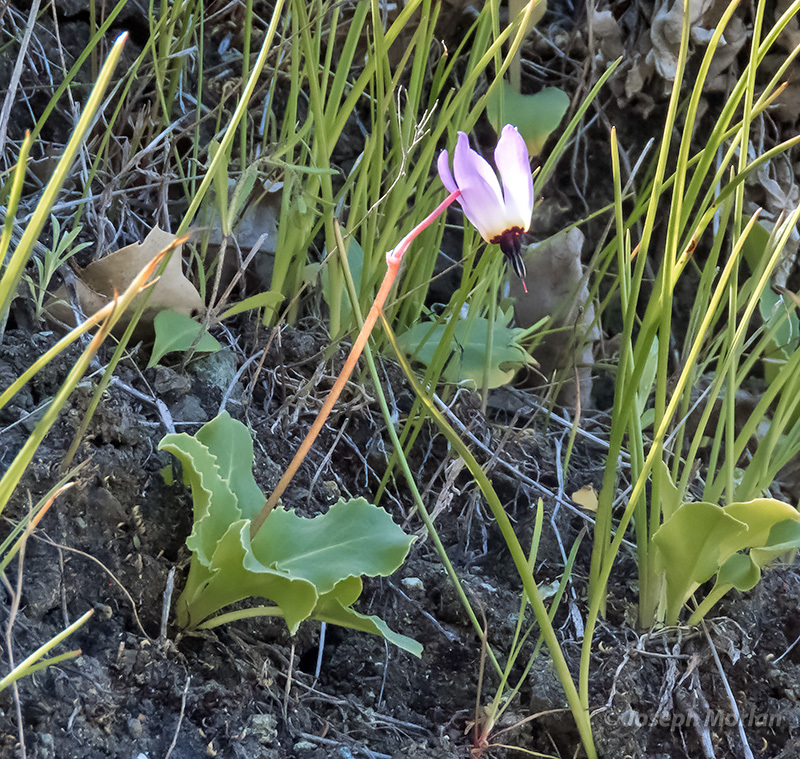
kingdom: Plantae
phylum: Tracheophyta
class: Magnoliopsida
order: Ericales
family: Primulaceae
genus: Dodecatheon
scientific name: Dodecatheon hendersonii
